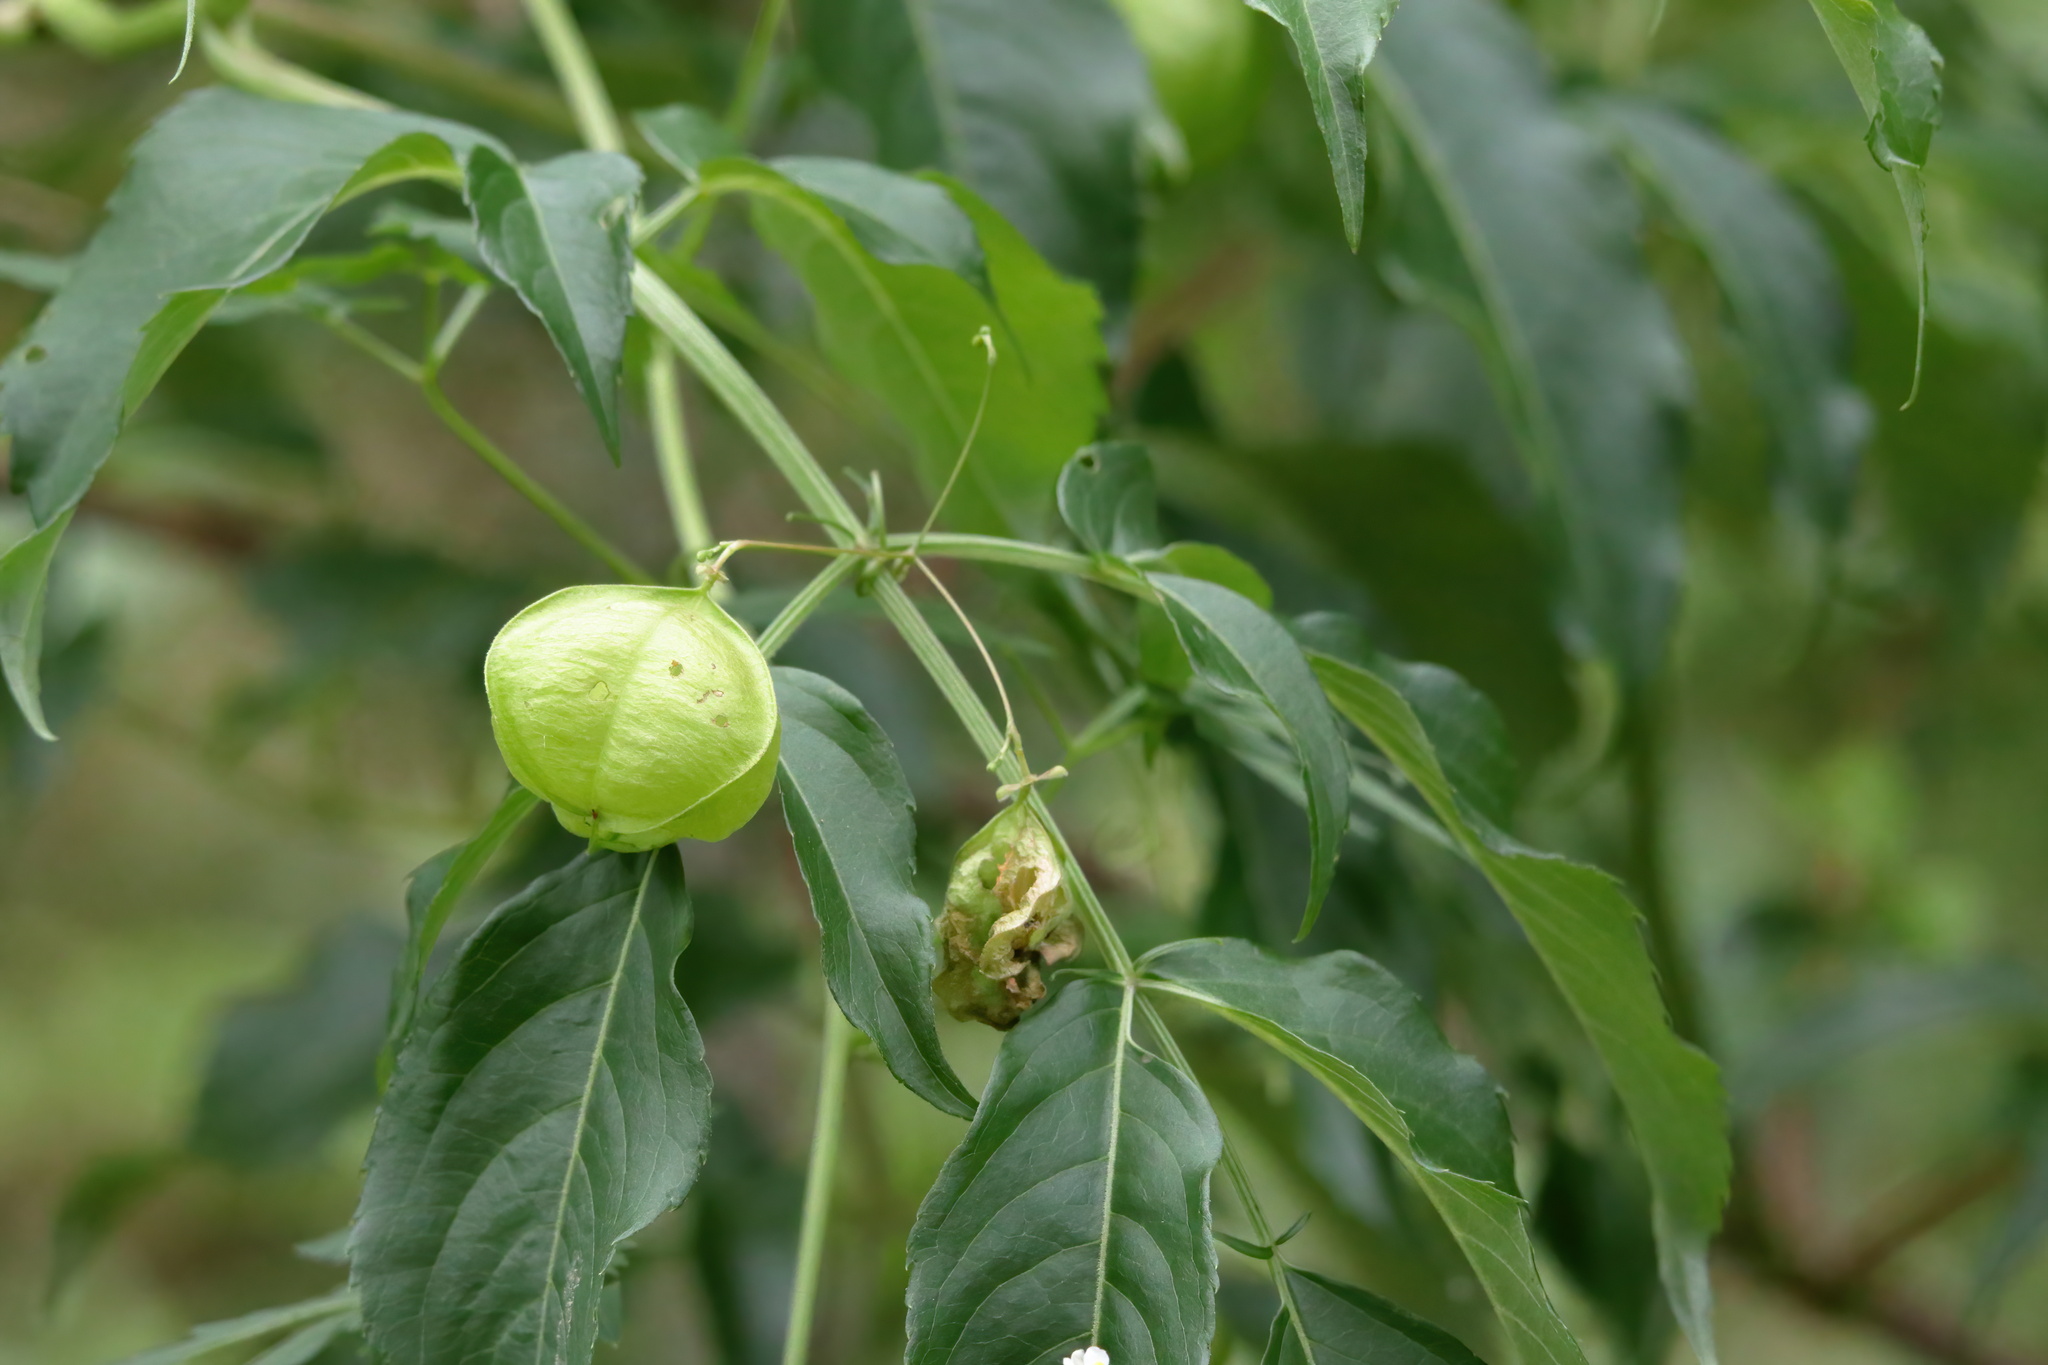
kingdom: Plantae
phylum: Tracheophyta
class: Magnoliopsida
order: Sapindales
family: Sapindaceae
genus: Cardiospermum
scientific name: Cardiospermum halicacabum
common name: Balloon vine
